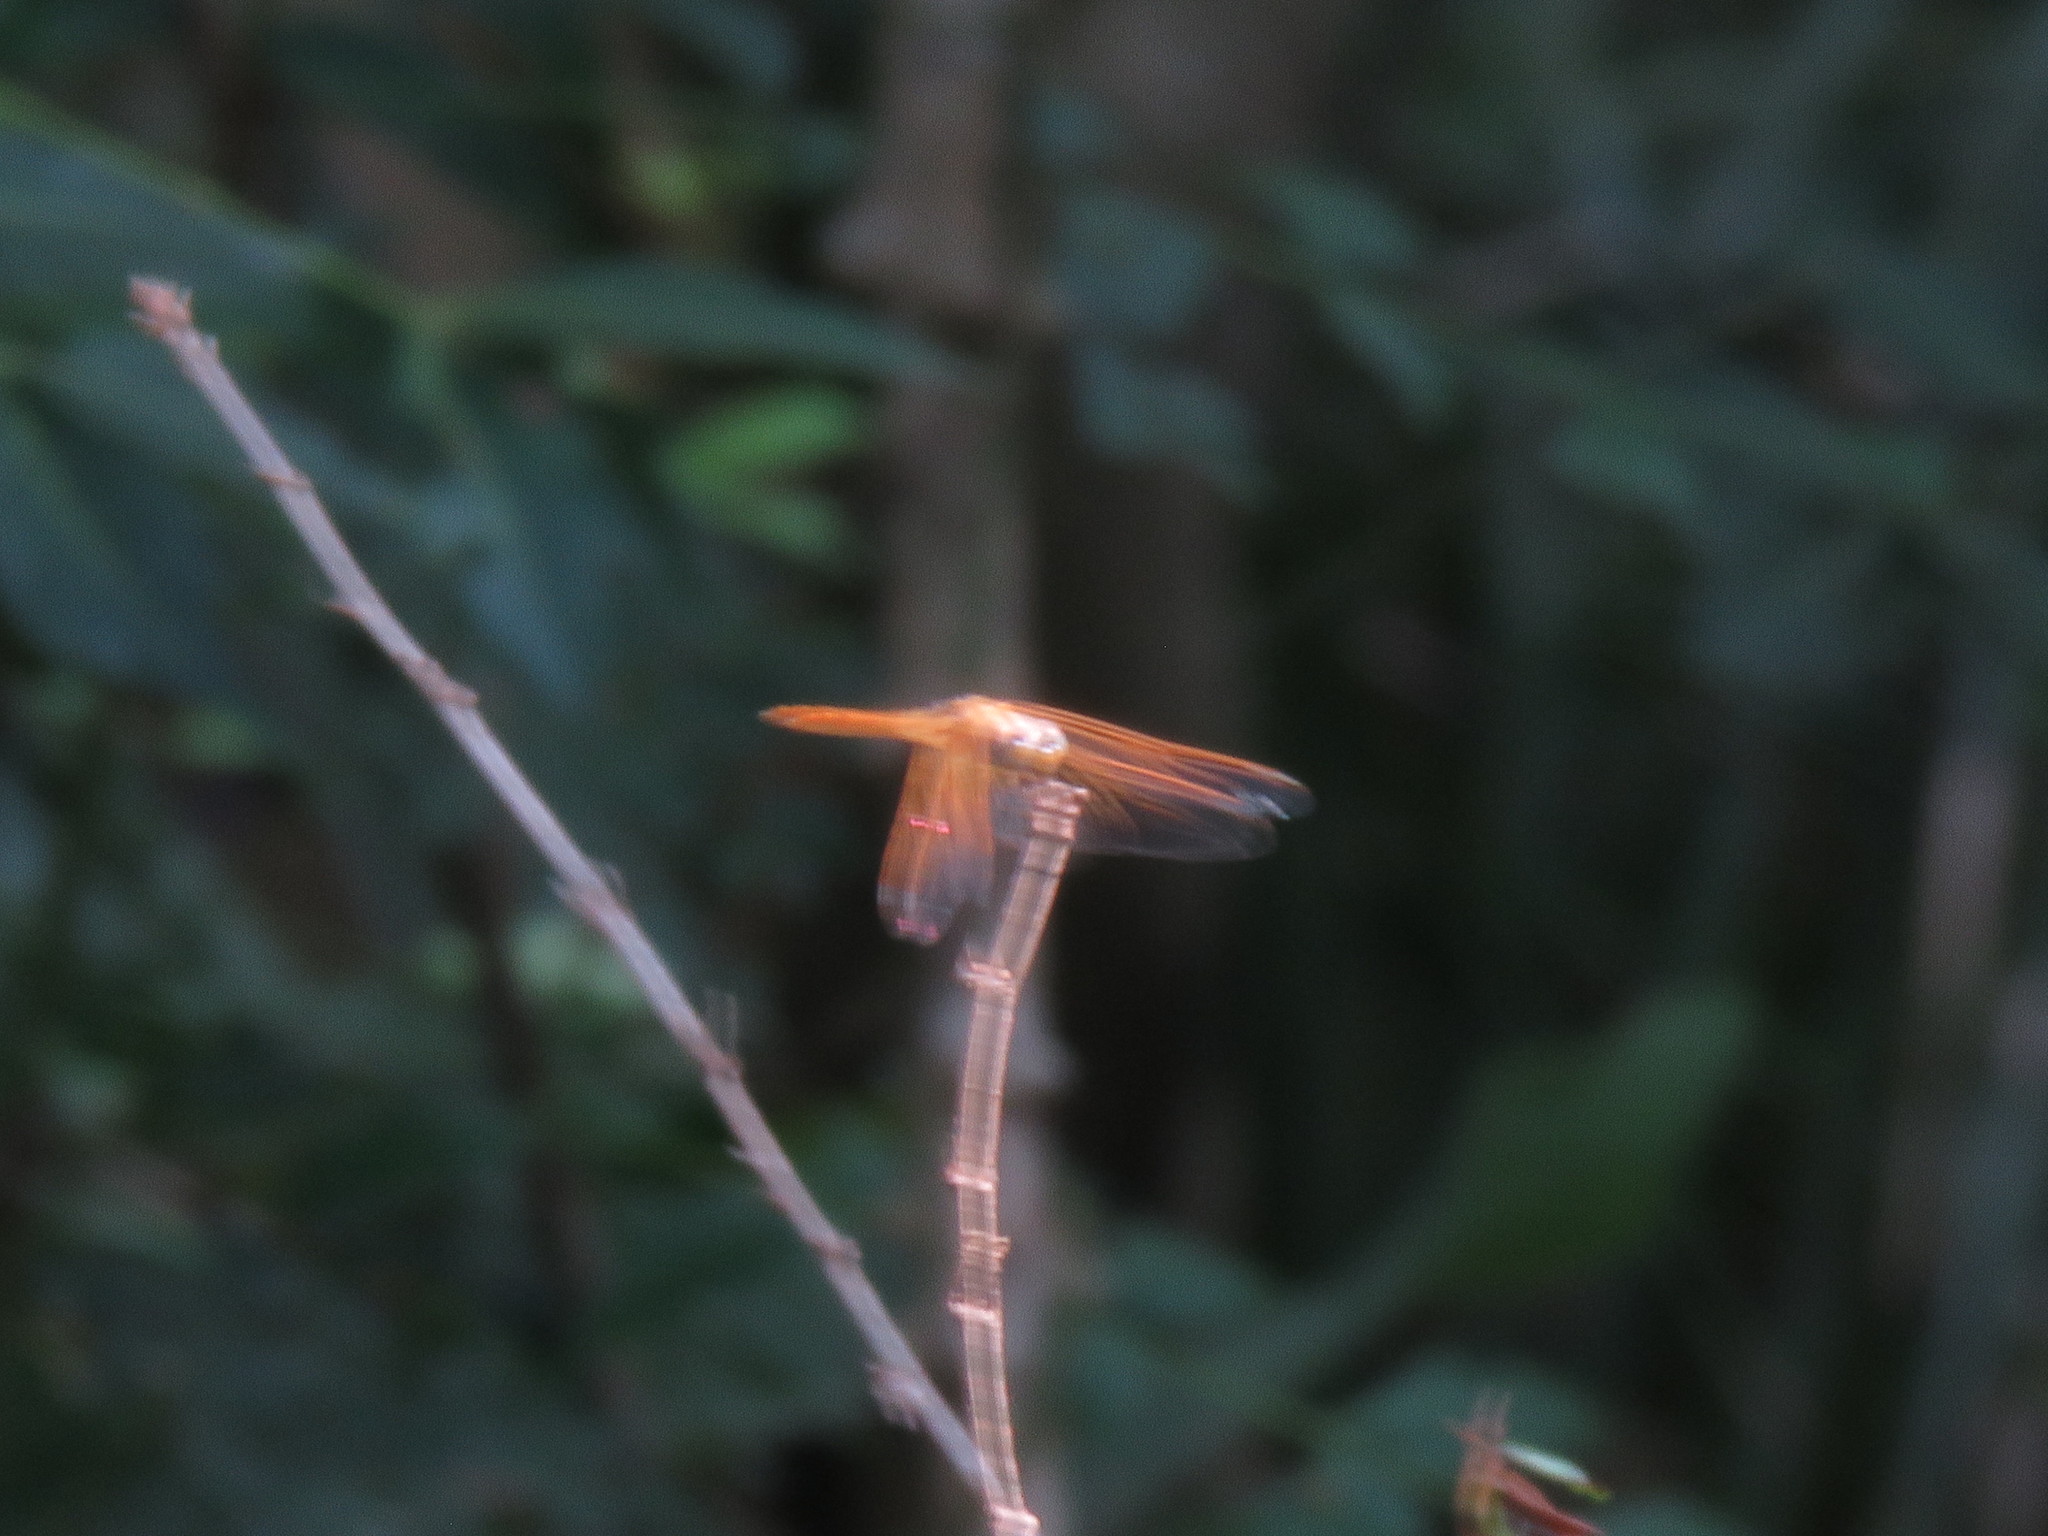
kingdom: Animalia
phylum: Arthropoda
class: Insecta
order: Odonata
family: Libellulidae
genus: Brachythemis
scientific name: Brachythemis contaminata
